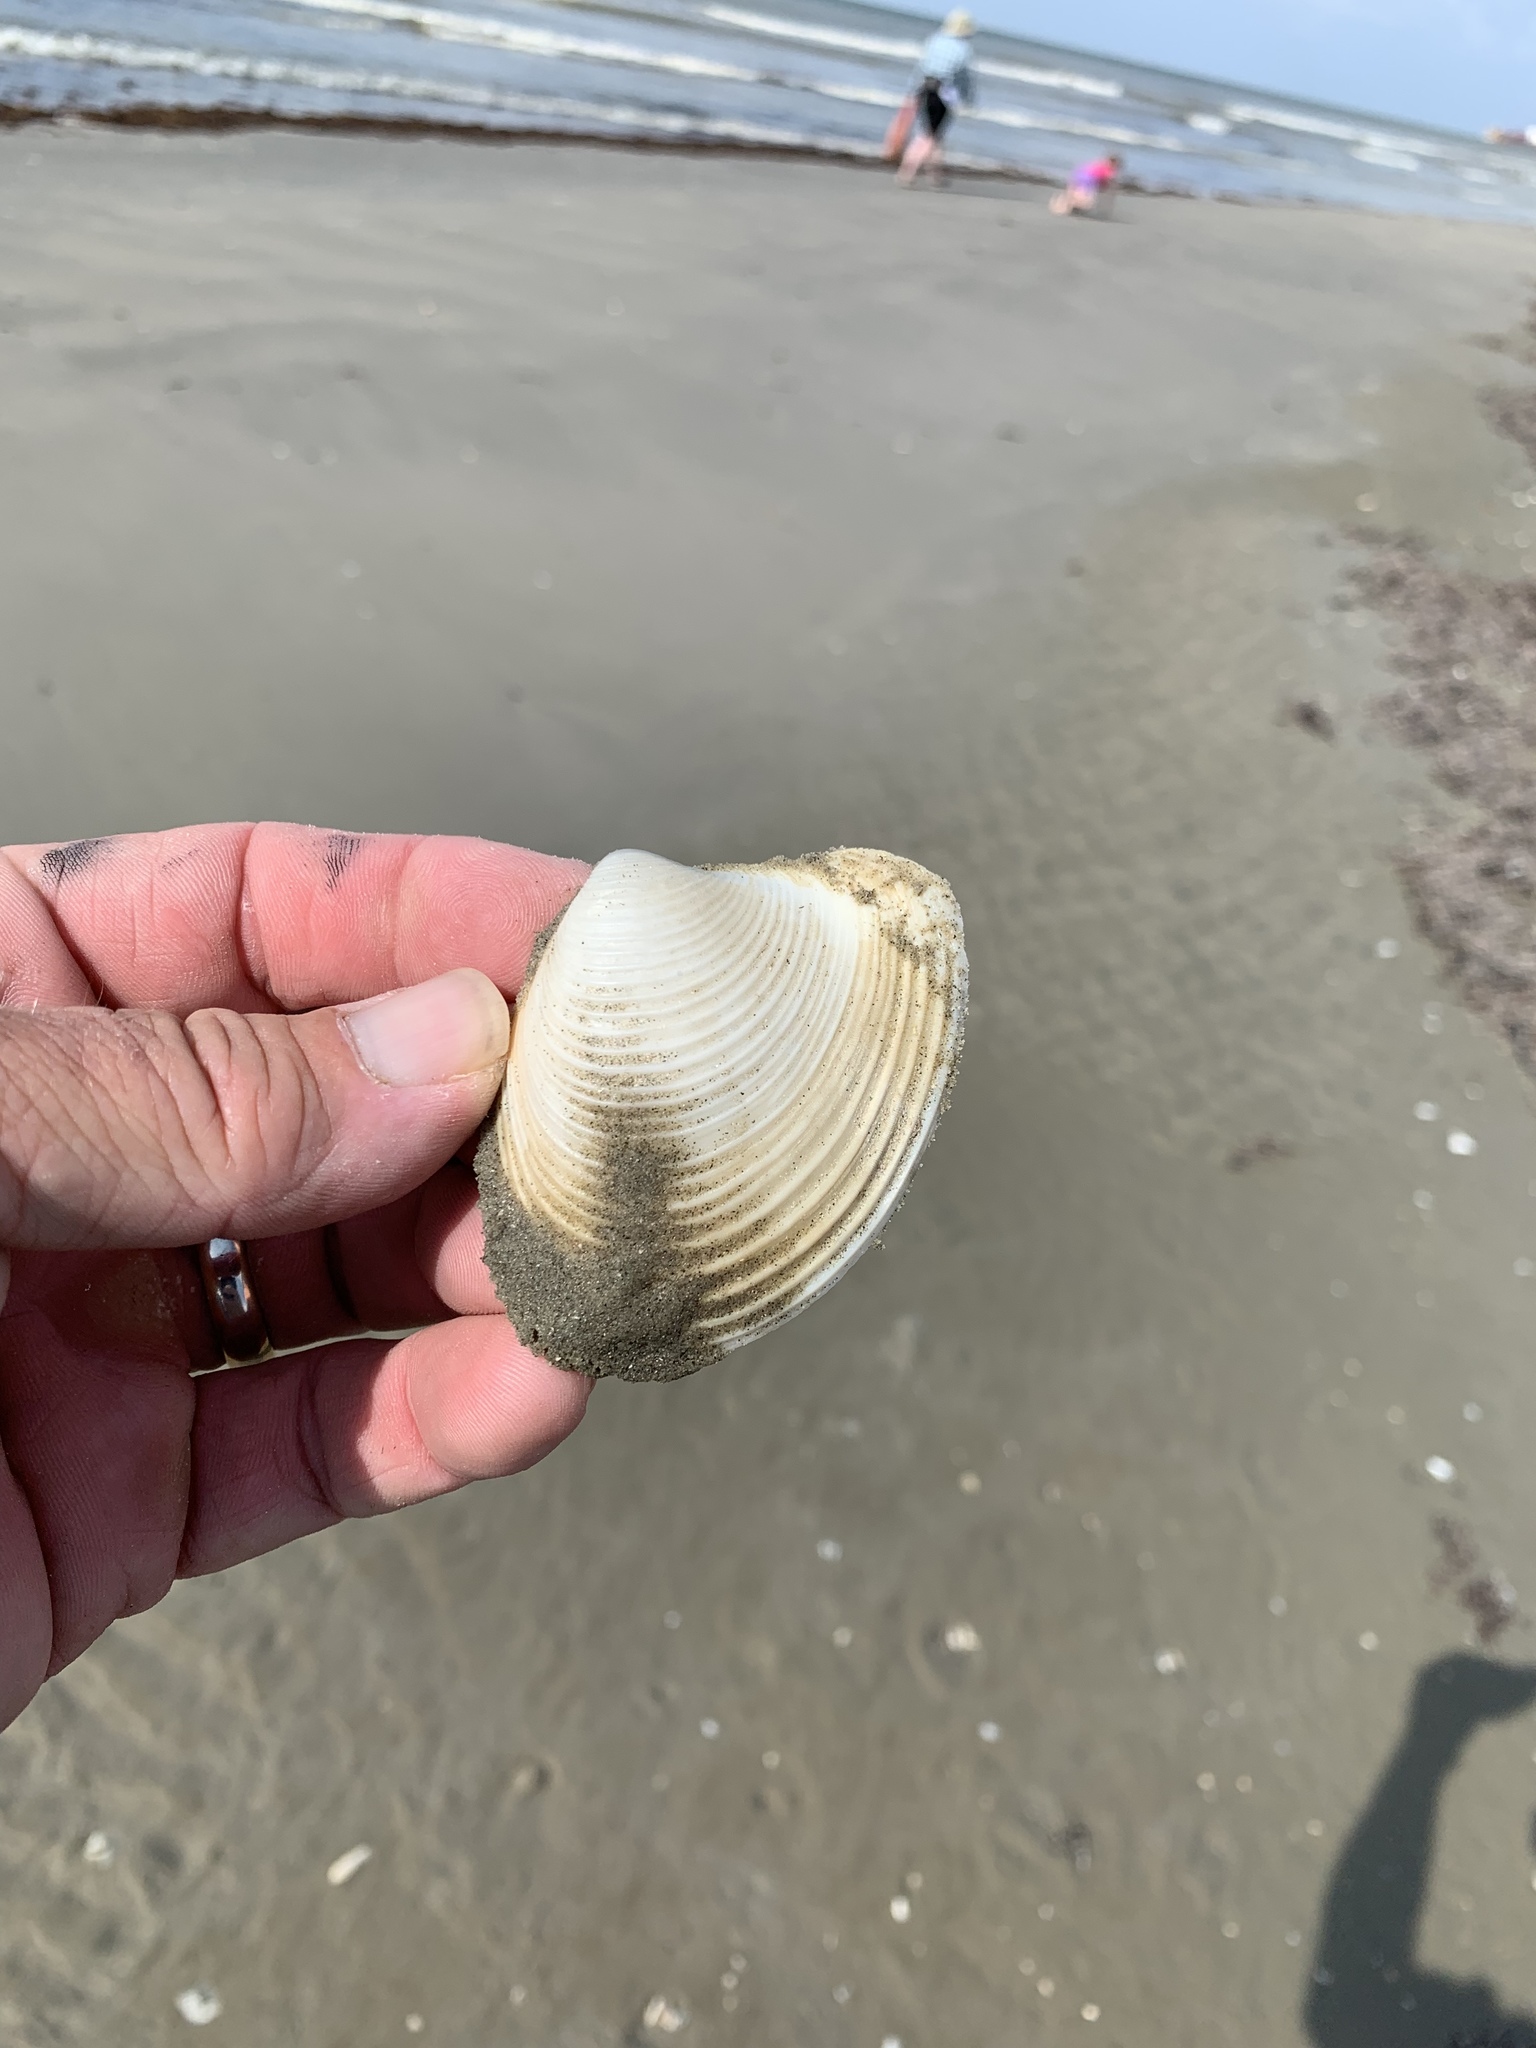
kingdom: Animalia
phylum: Mollusca
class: Bivalvia
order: Venerida
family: Anatinellidae
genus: Raeta
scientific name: Raeta plicatella
